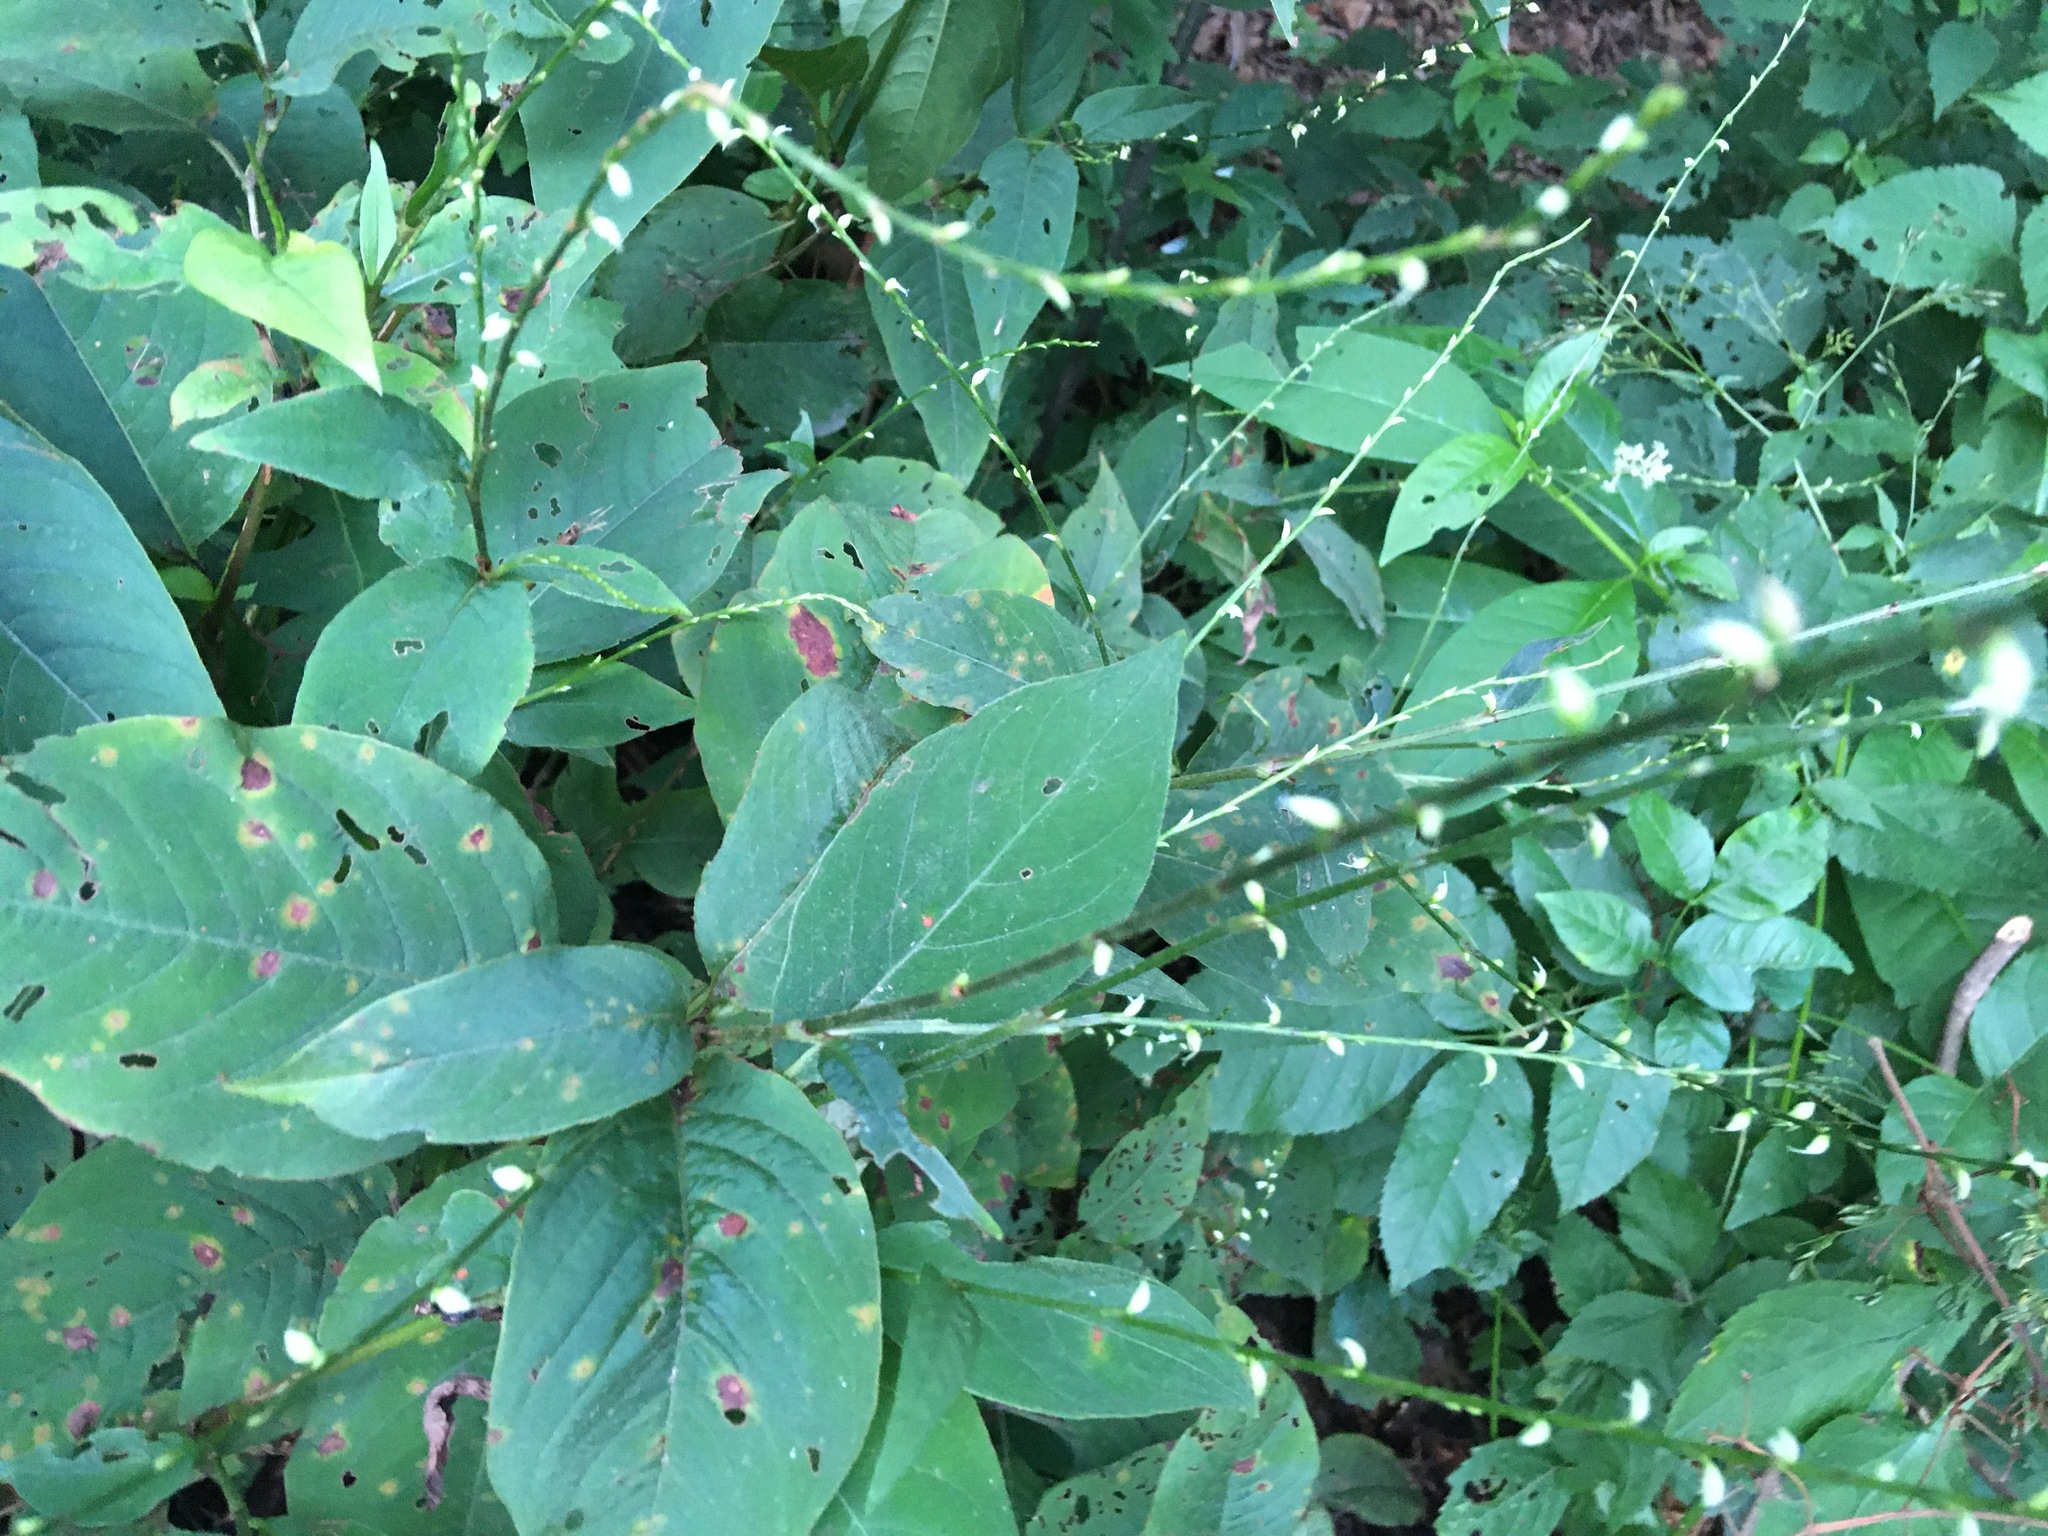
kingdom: Plantae
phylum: Tracheophyta
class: Magnoliopsida
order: Caryophyllales
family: Polygonaceae
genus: Persicaria
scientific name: Persicaria virginiana
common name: Jumpseed
